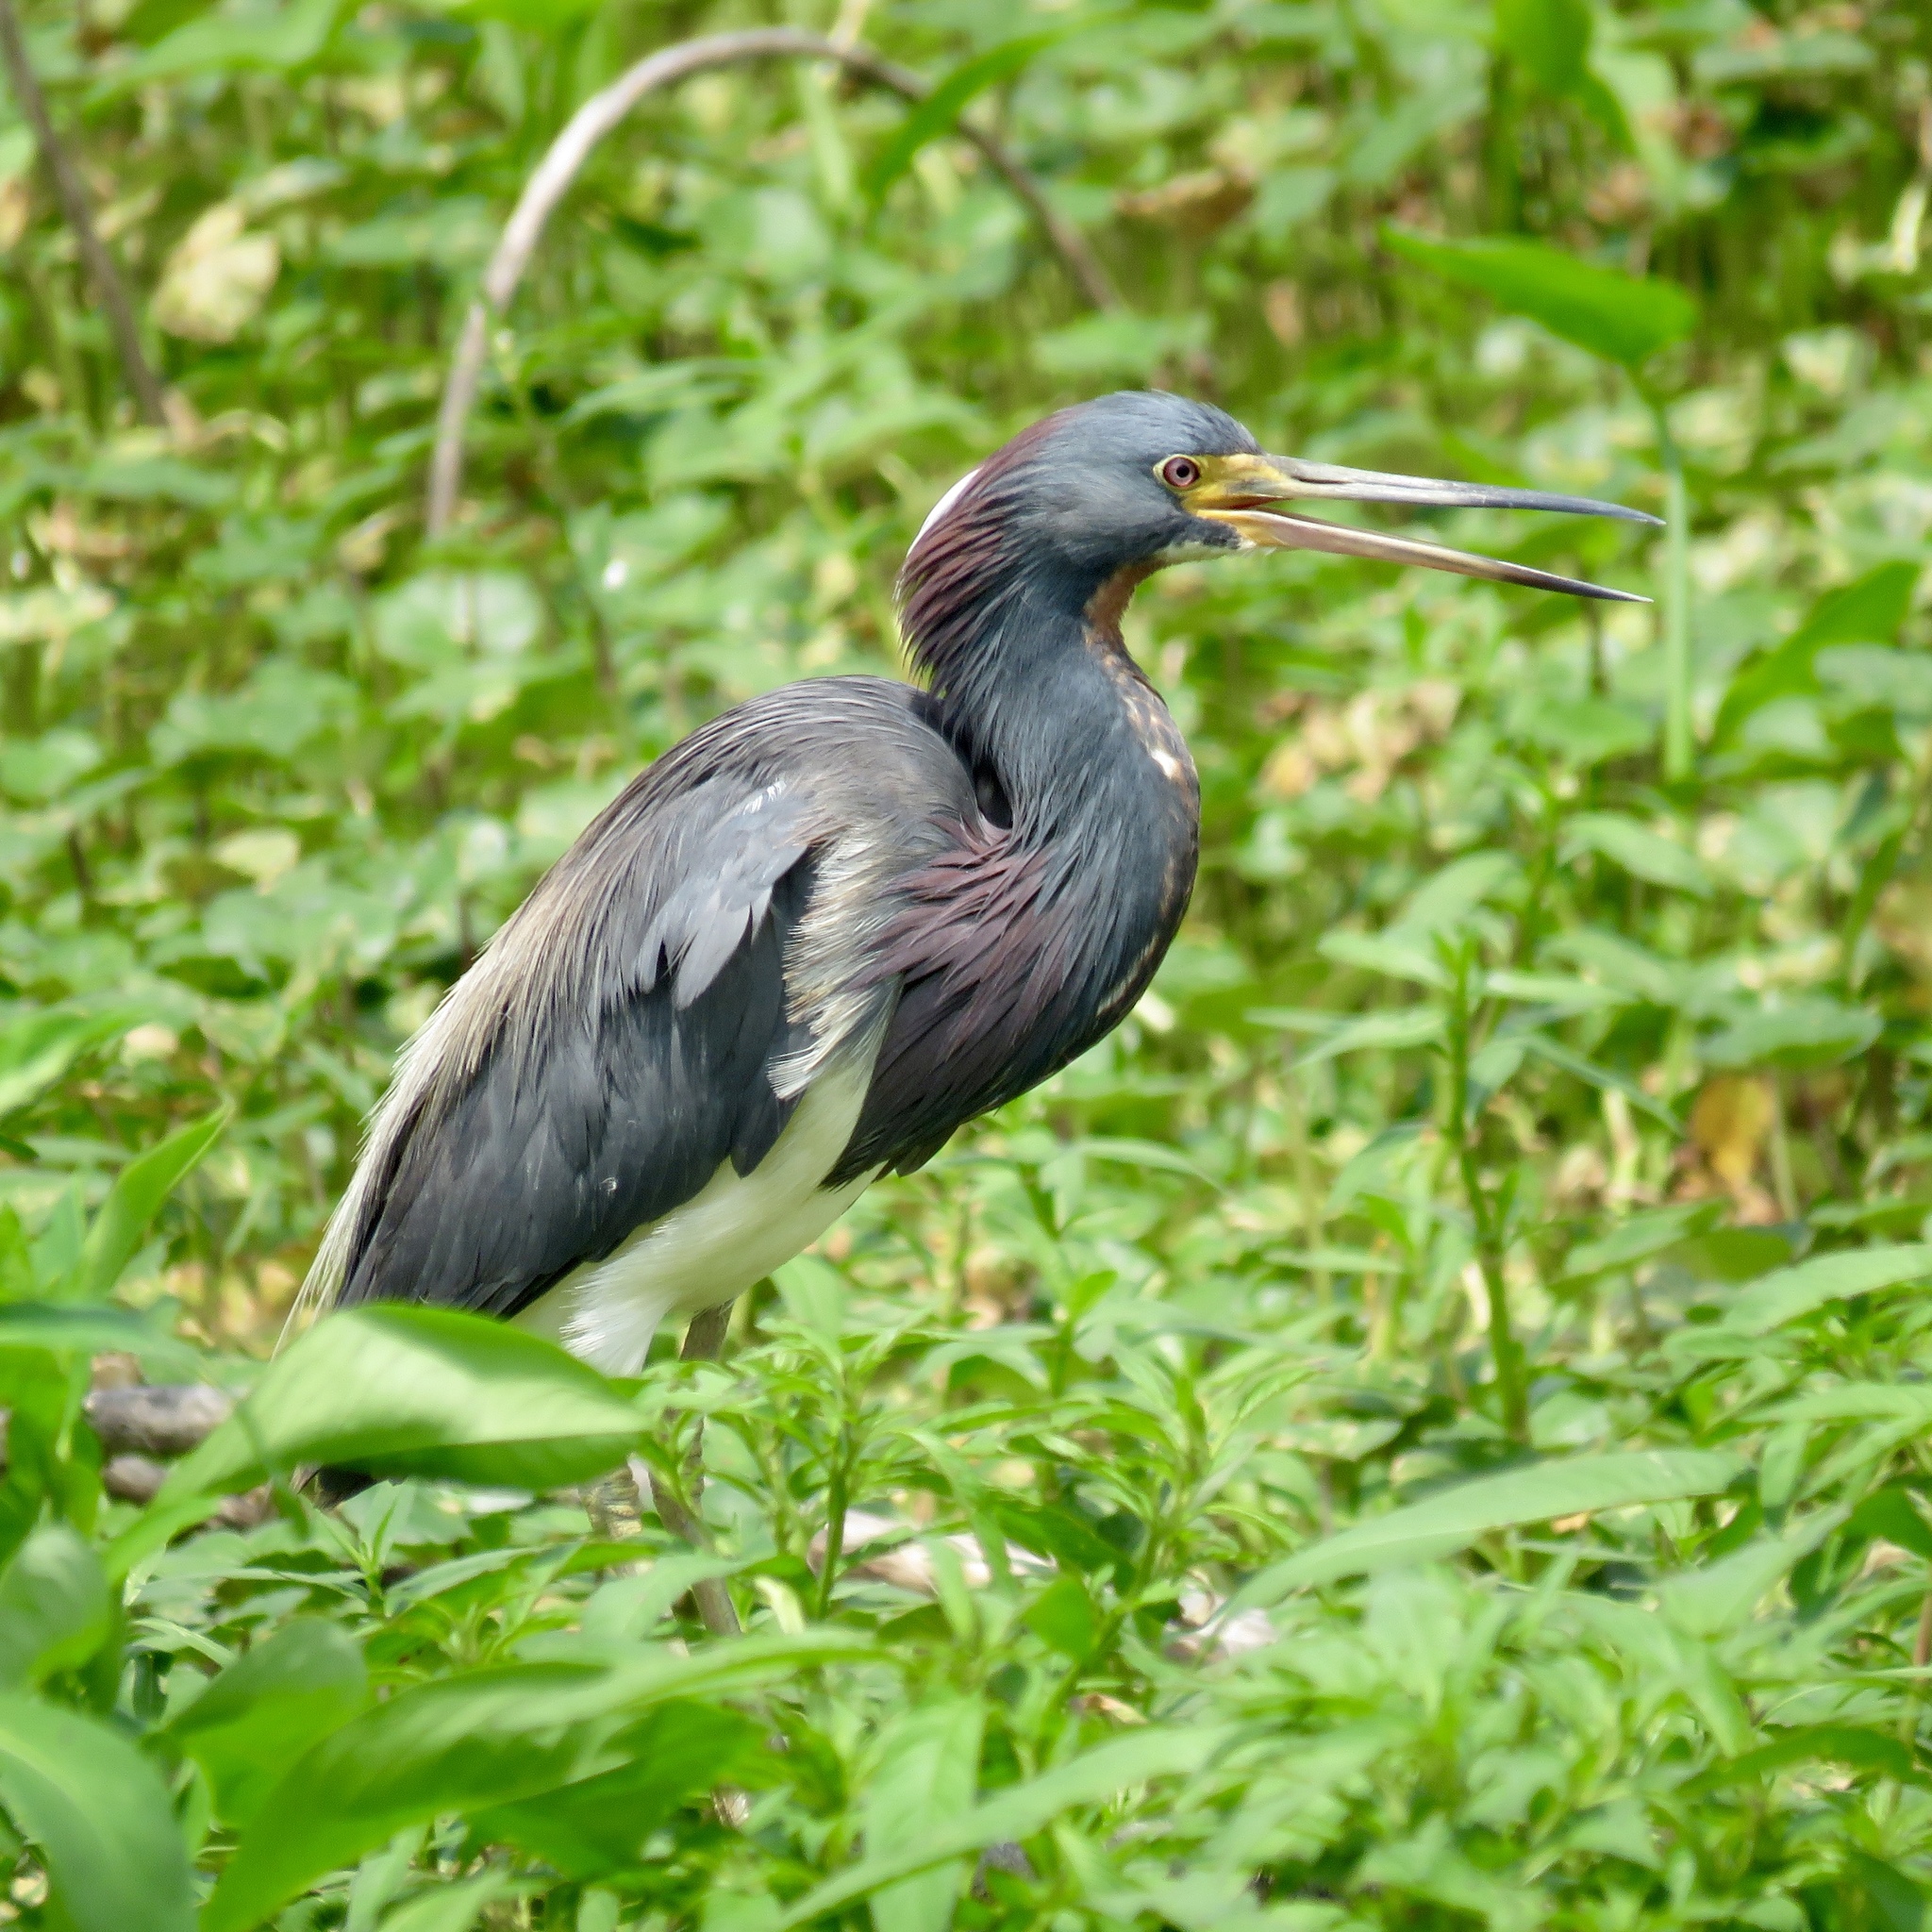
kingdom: Animalia
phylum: Chordata
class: Aves
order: Pelecaniformes
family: Ardeidae
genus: Egretta
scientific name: Egretta tricolor
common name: Tricolored heron
